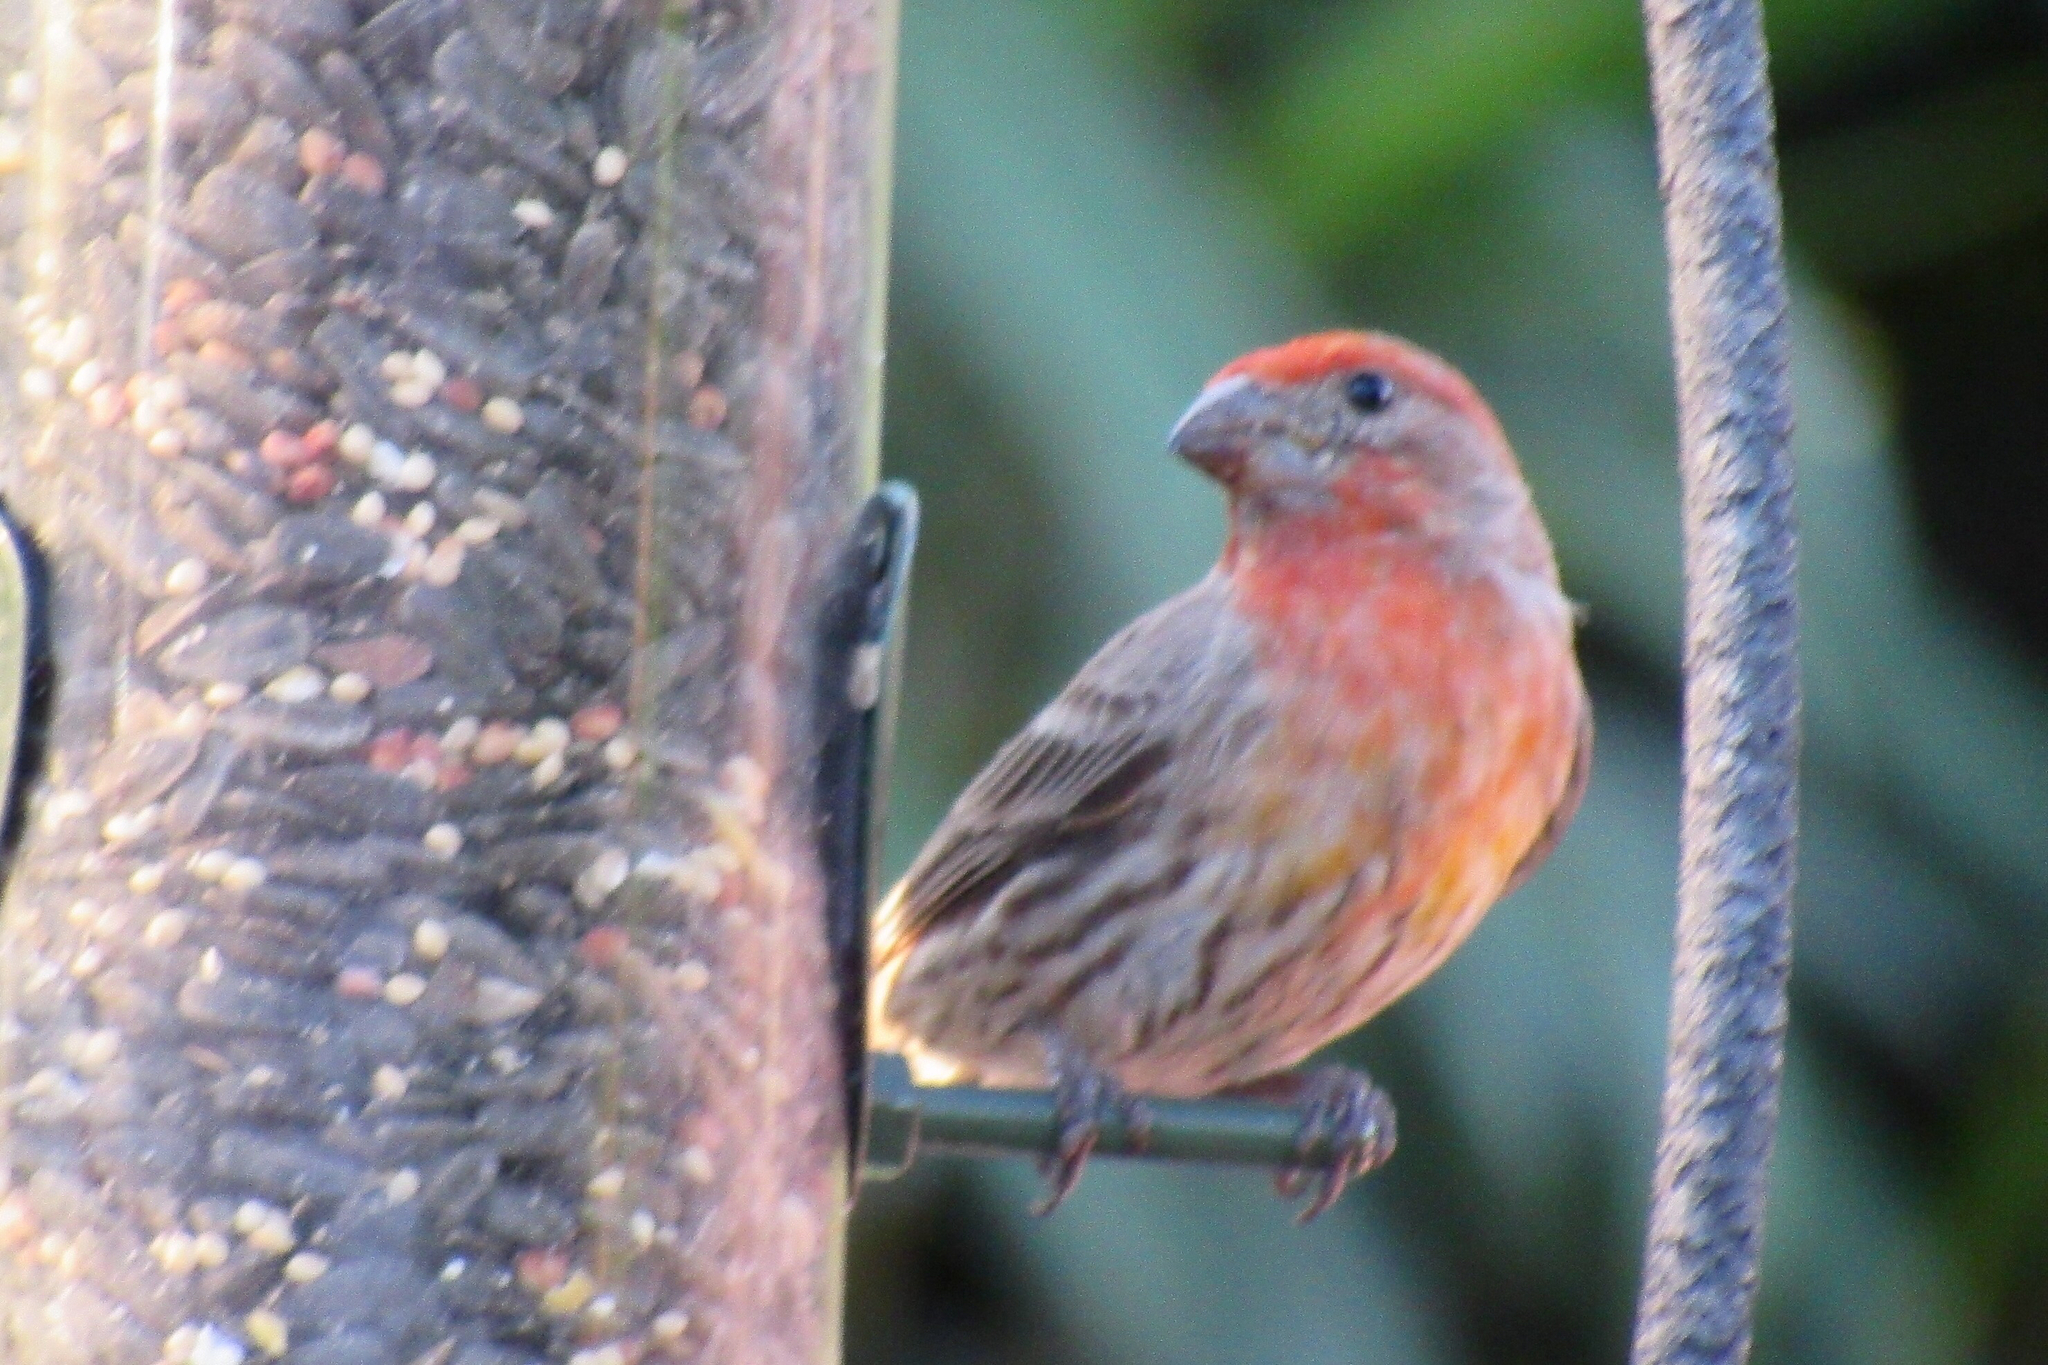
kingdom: Animalia
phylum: Chordata
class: Aves
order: Passeriformes
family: Fringillidae
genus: Haemorhous
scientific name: Haemorhous mexicanus
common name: House finch
